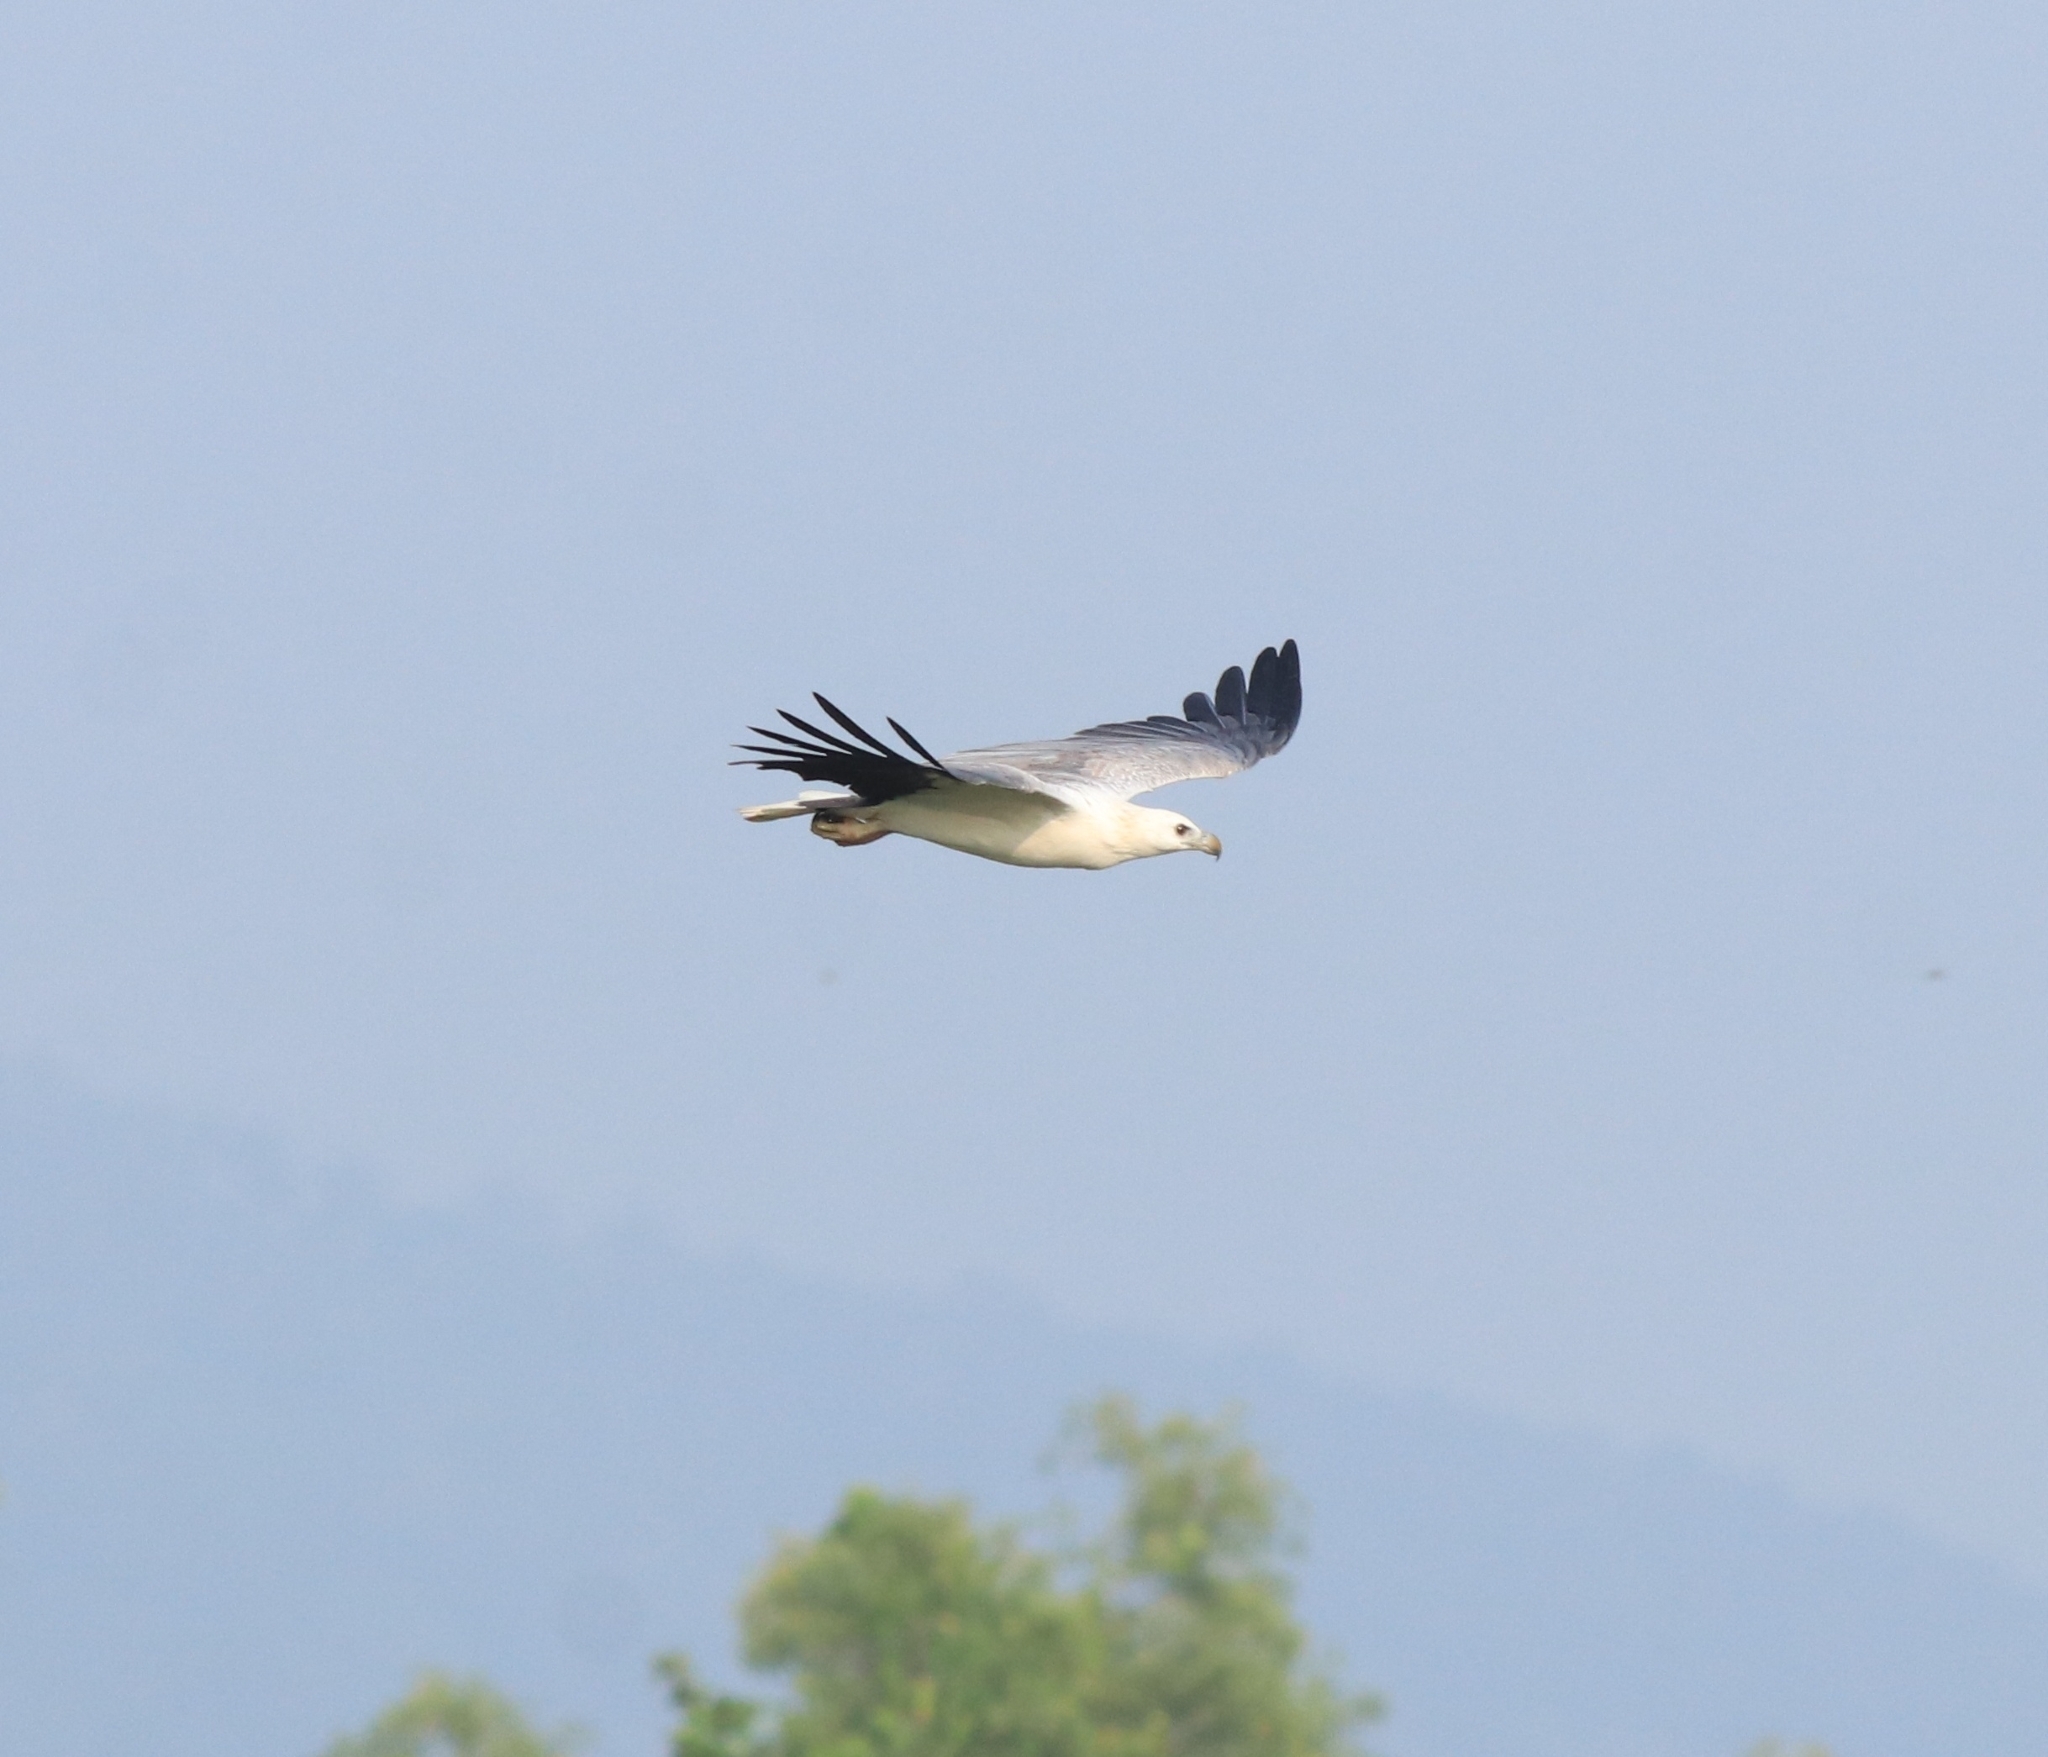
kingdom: Animalia
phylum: Chordata
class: Aves
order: Accipitriformes
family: Accipitridae
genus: Haliaeetus
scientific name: Haliaeetus leucogaster
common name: White-bellied sea eagle
